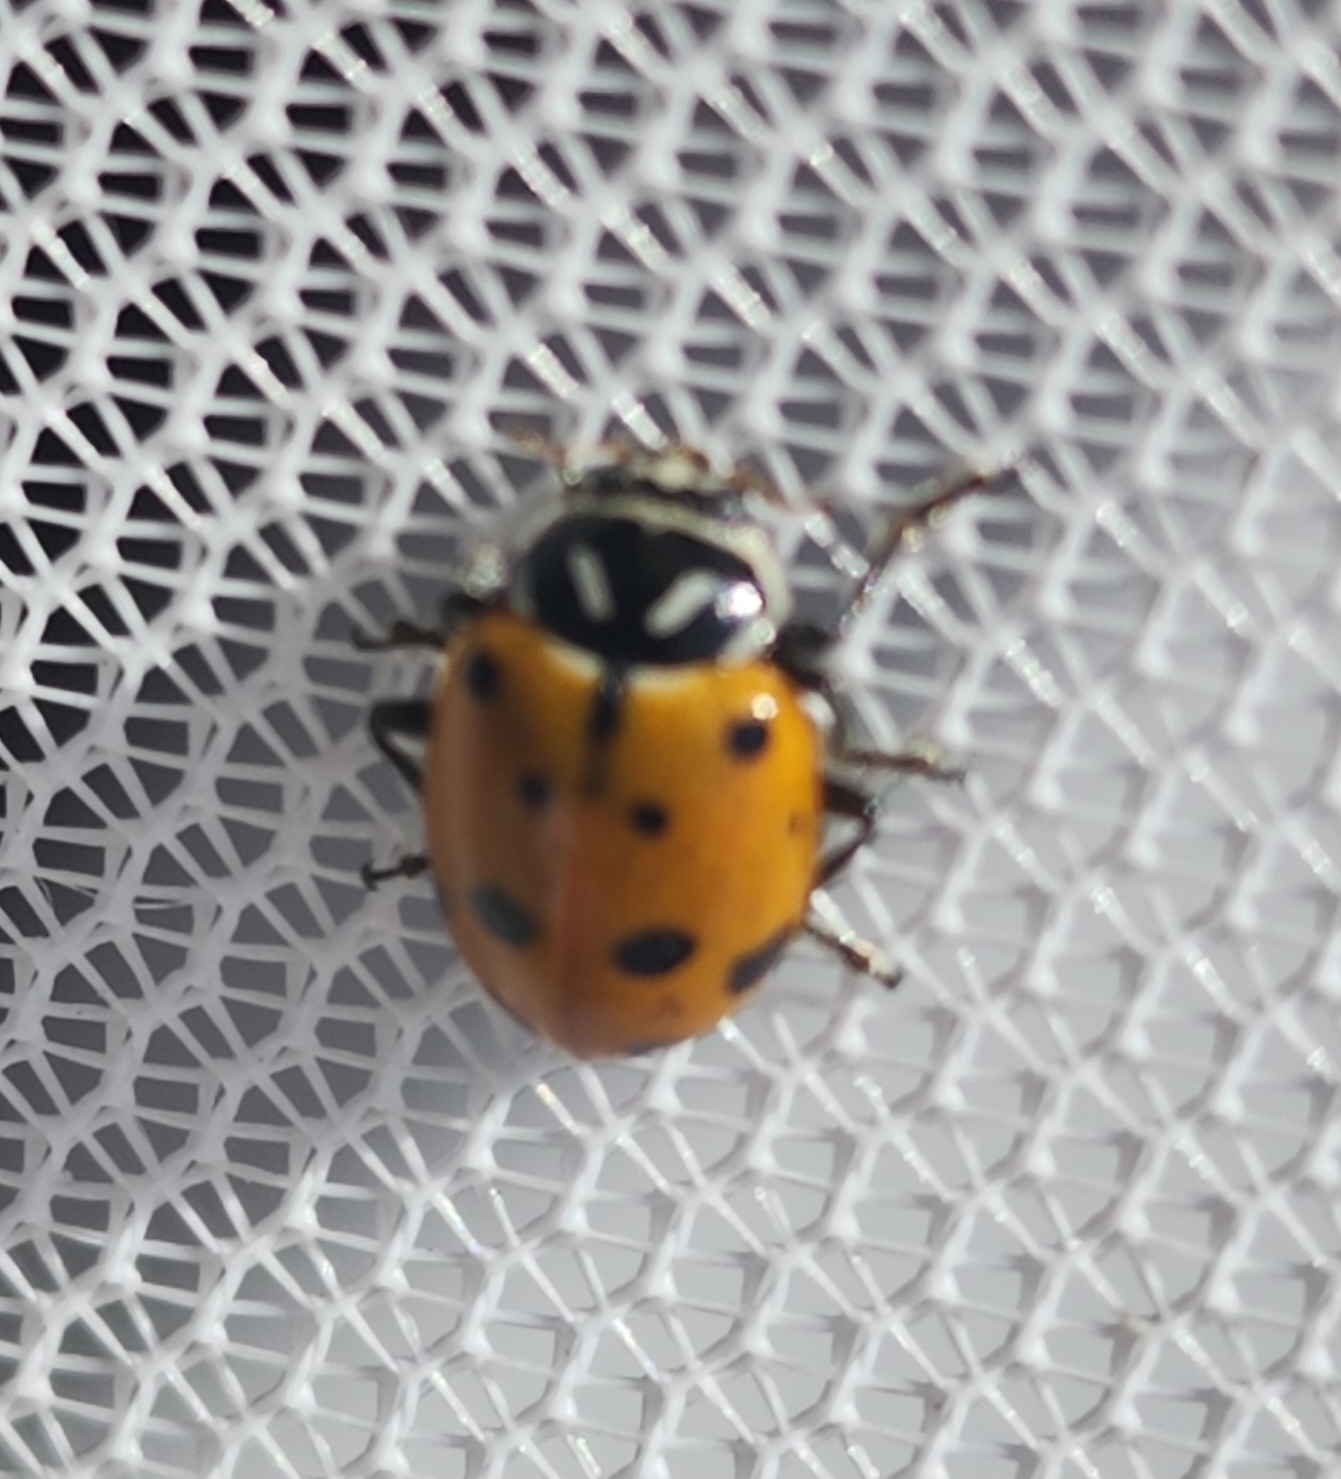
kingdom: Animalia
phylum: Arthropoda
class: Insecta
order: Coleoptera
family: Coccinellidae
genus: Hippodamia
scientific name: Hippodamia convergens
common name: Convergent lady beetle
